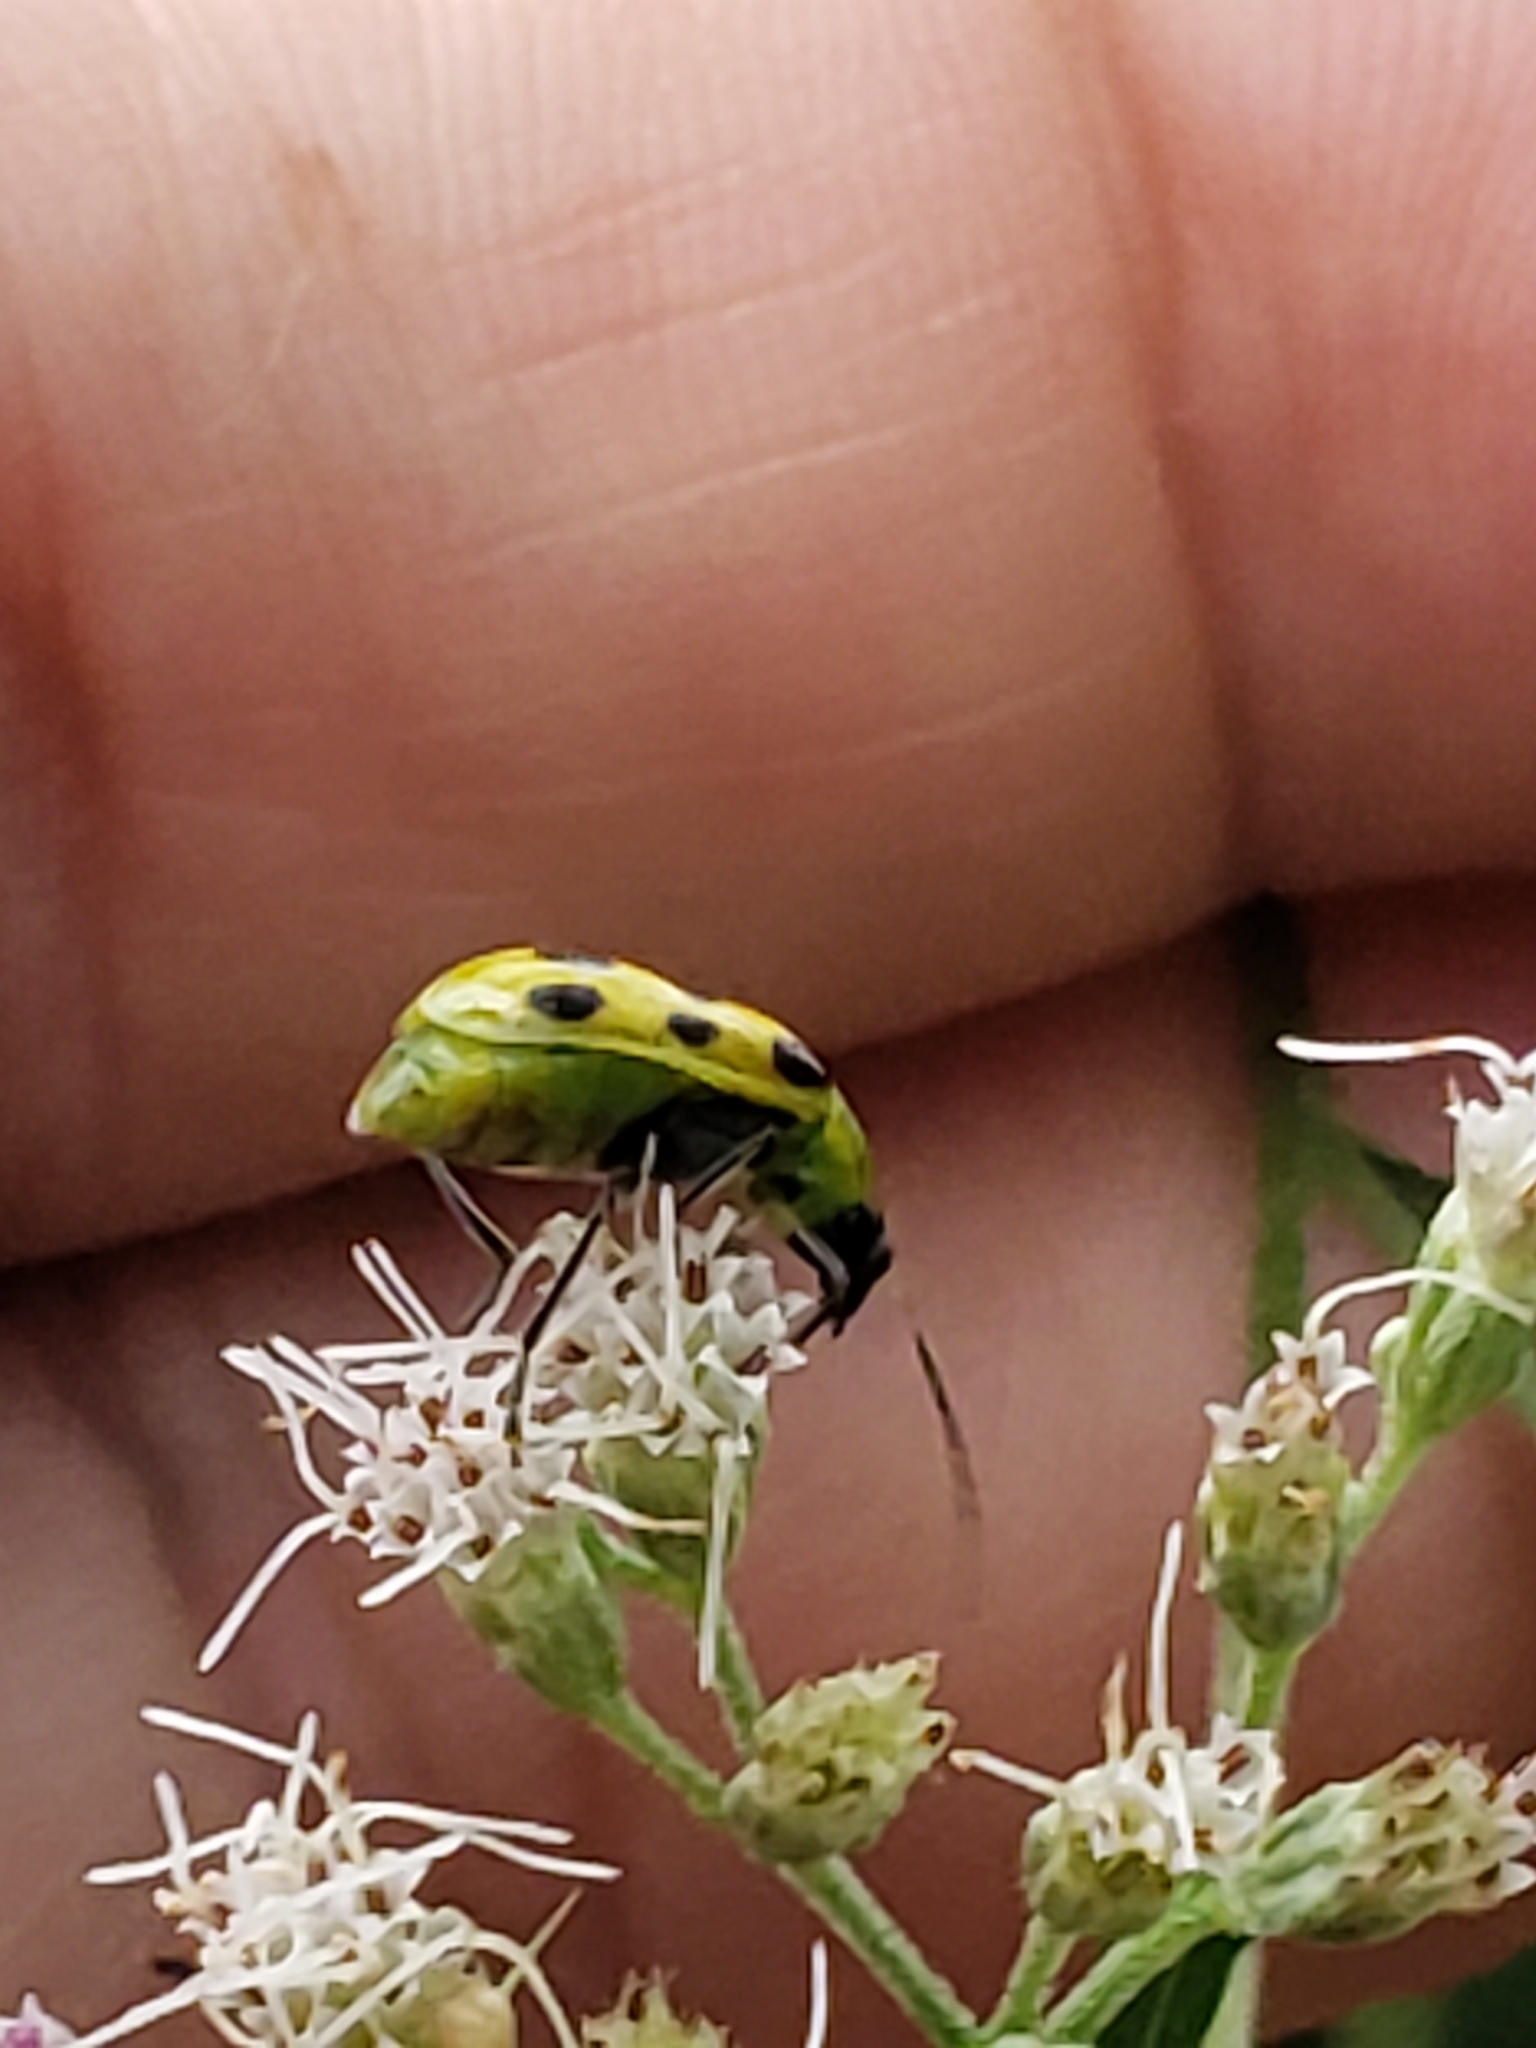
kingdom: Animalia
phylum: Arthropoda
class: Insecta
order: Coleoptera
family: Chrysomelidae
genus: Diabrotica
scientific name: Diabrotica undecimpunctata
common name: Spotted cucumber beetle
